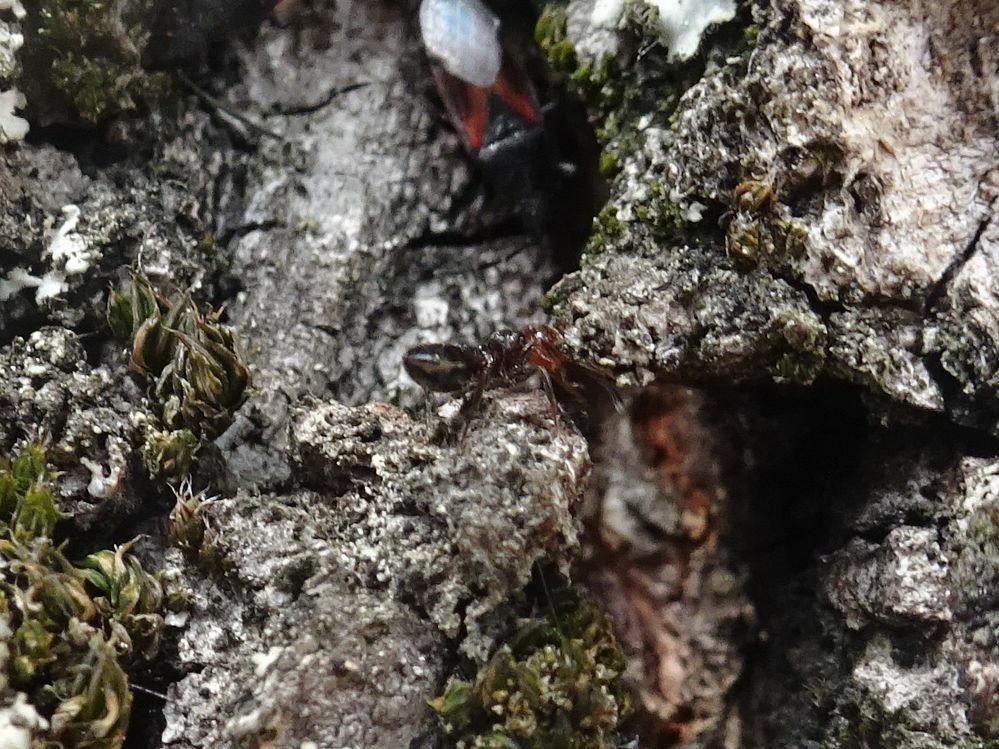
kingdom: Animalia
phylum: Arthropoda
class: Insecta
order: Hymenoptera
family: Formicidae
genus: Crematogaster
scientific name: Crematogaster scutellaris
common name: Fourmi du liège
